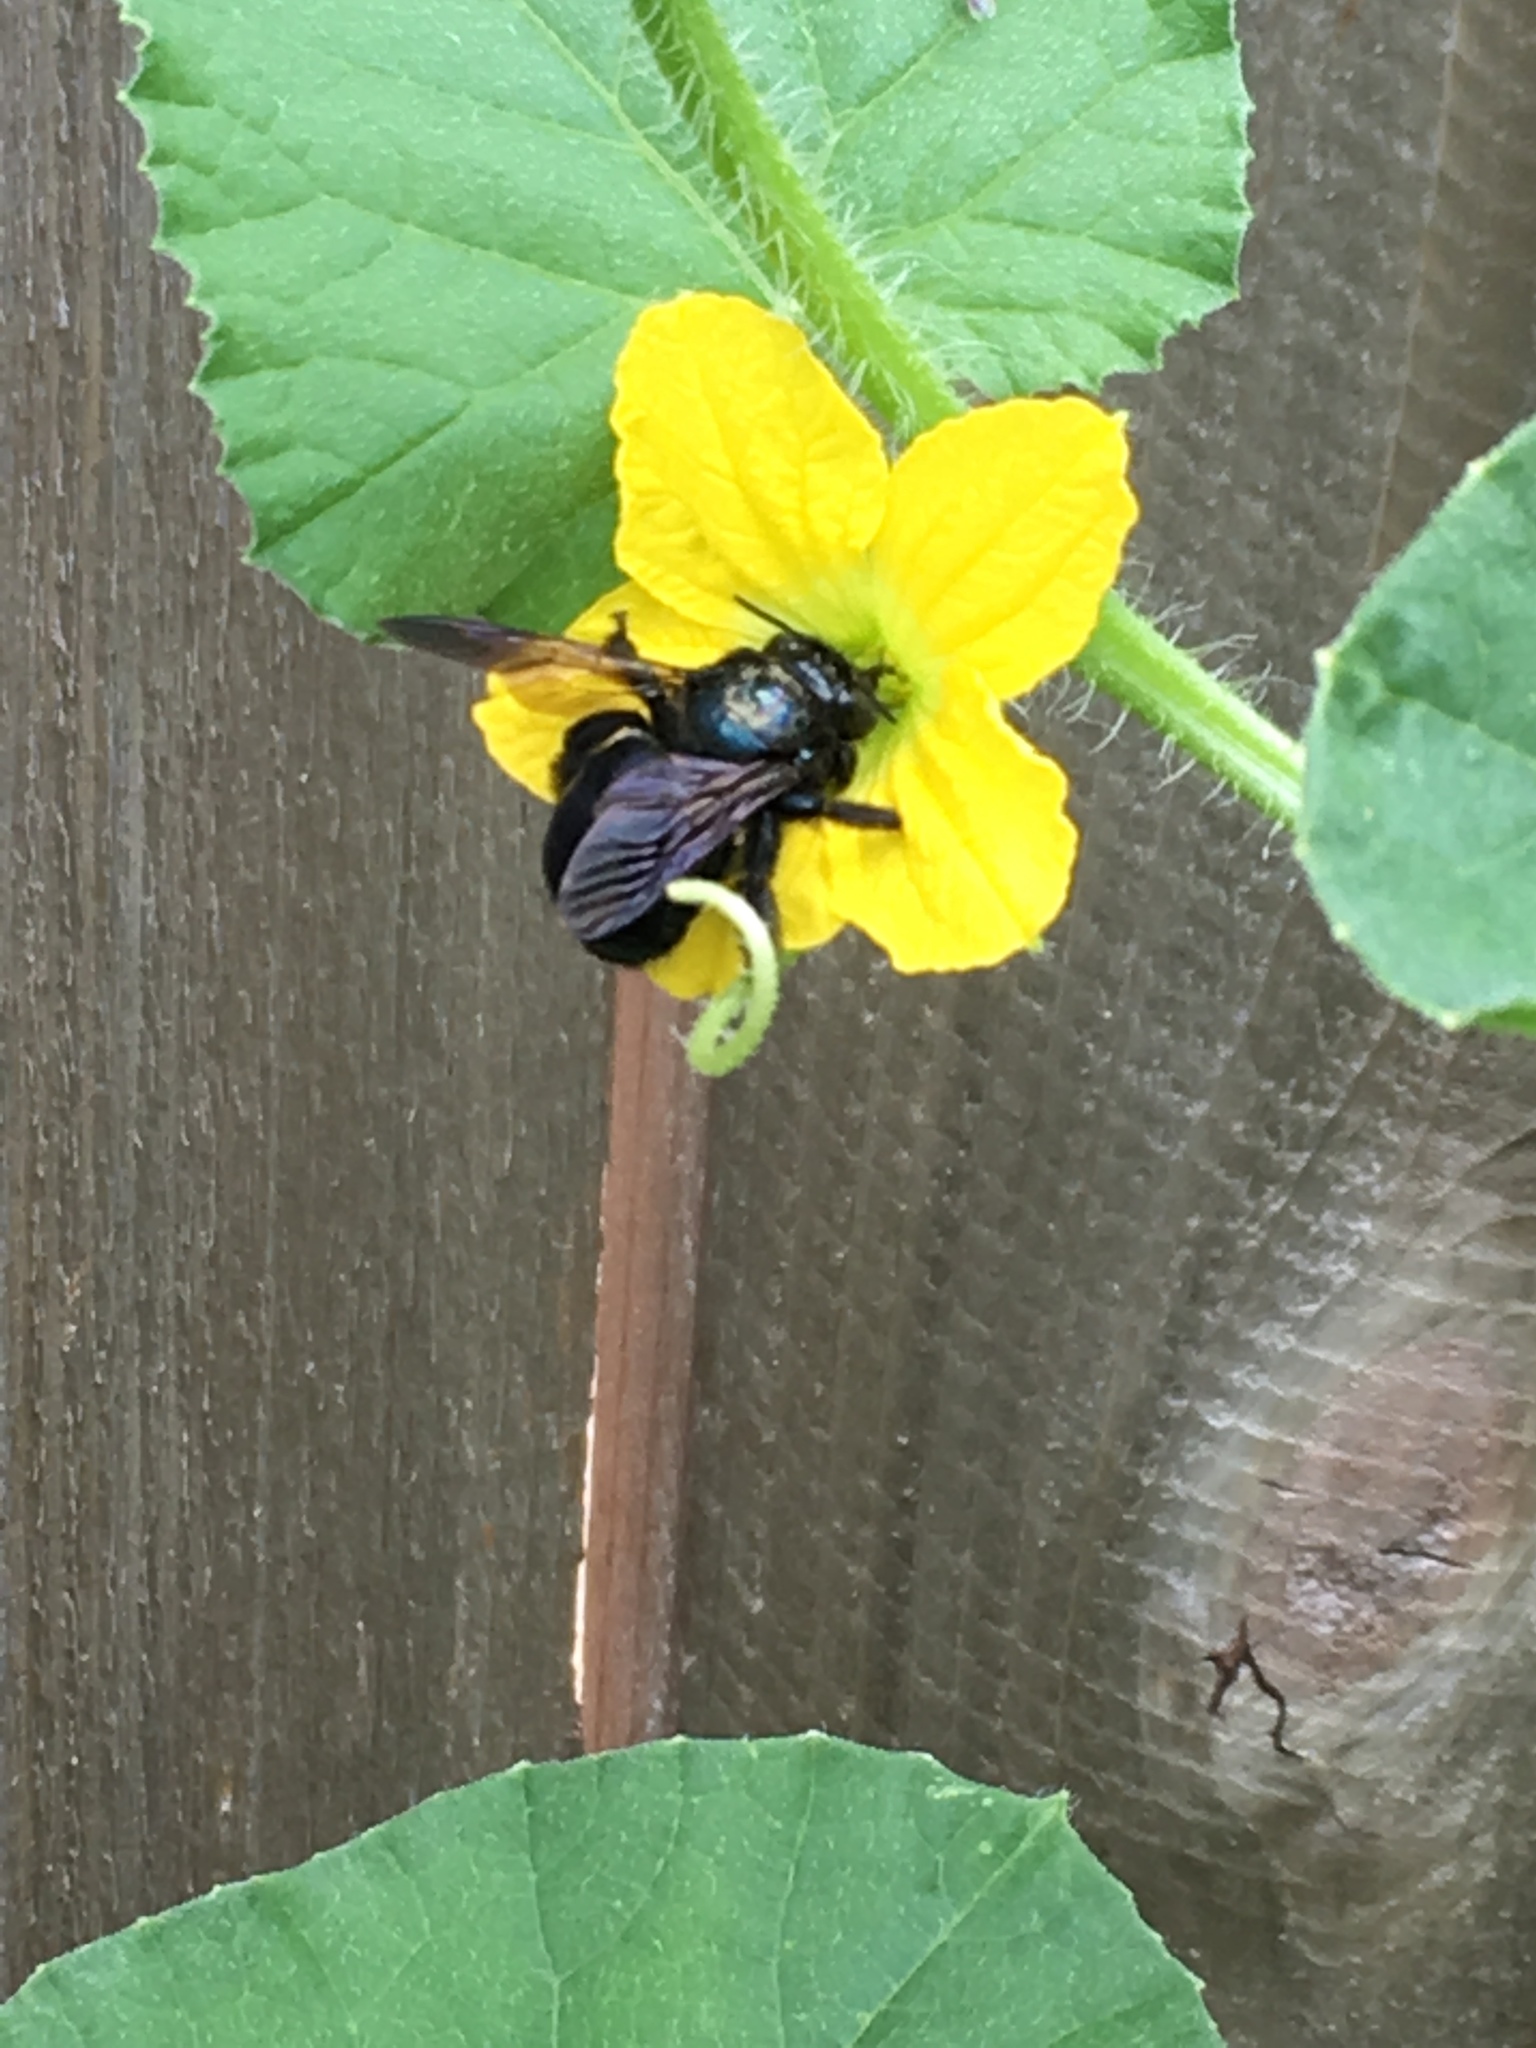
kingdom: Animalia
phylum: Arthropoda
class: Insecta
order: Hymenoptera
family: Apidae
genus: Xylocopa
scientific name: Xylocopa micans
